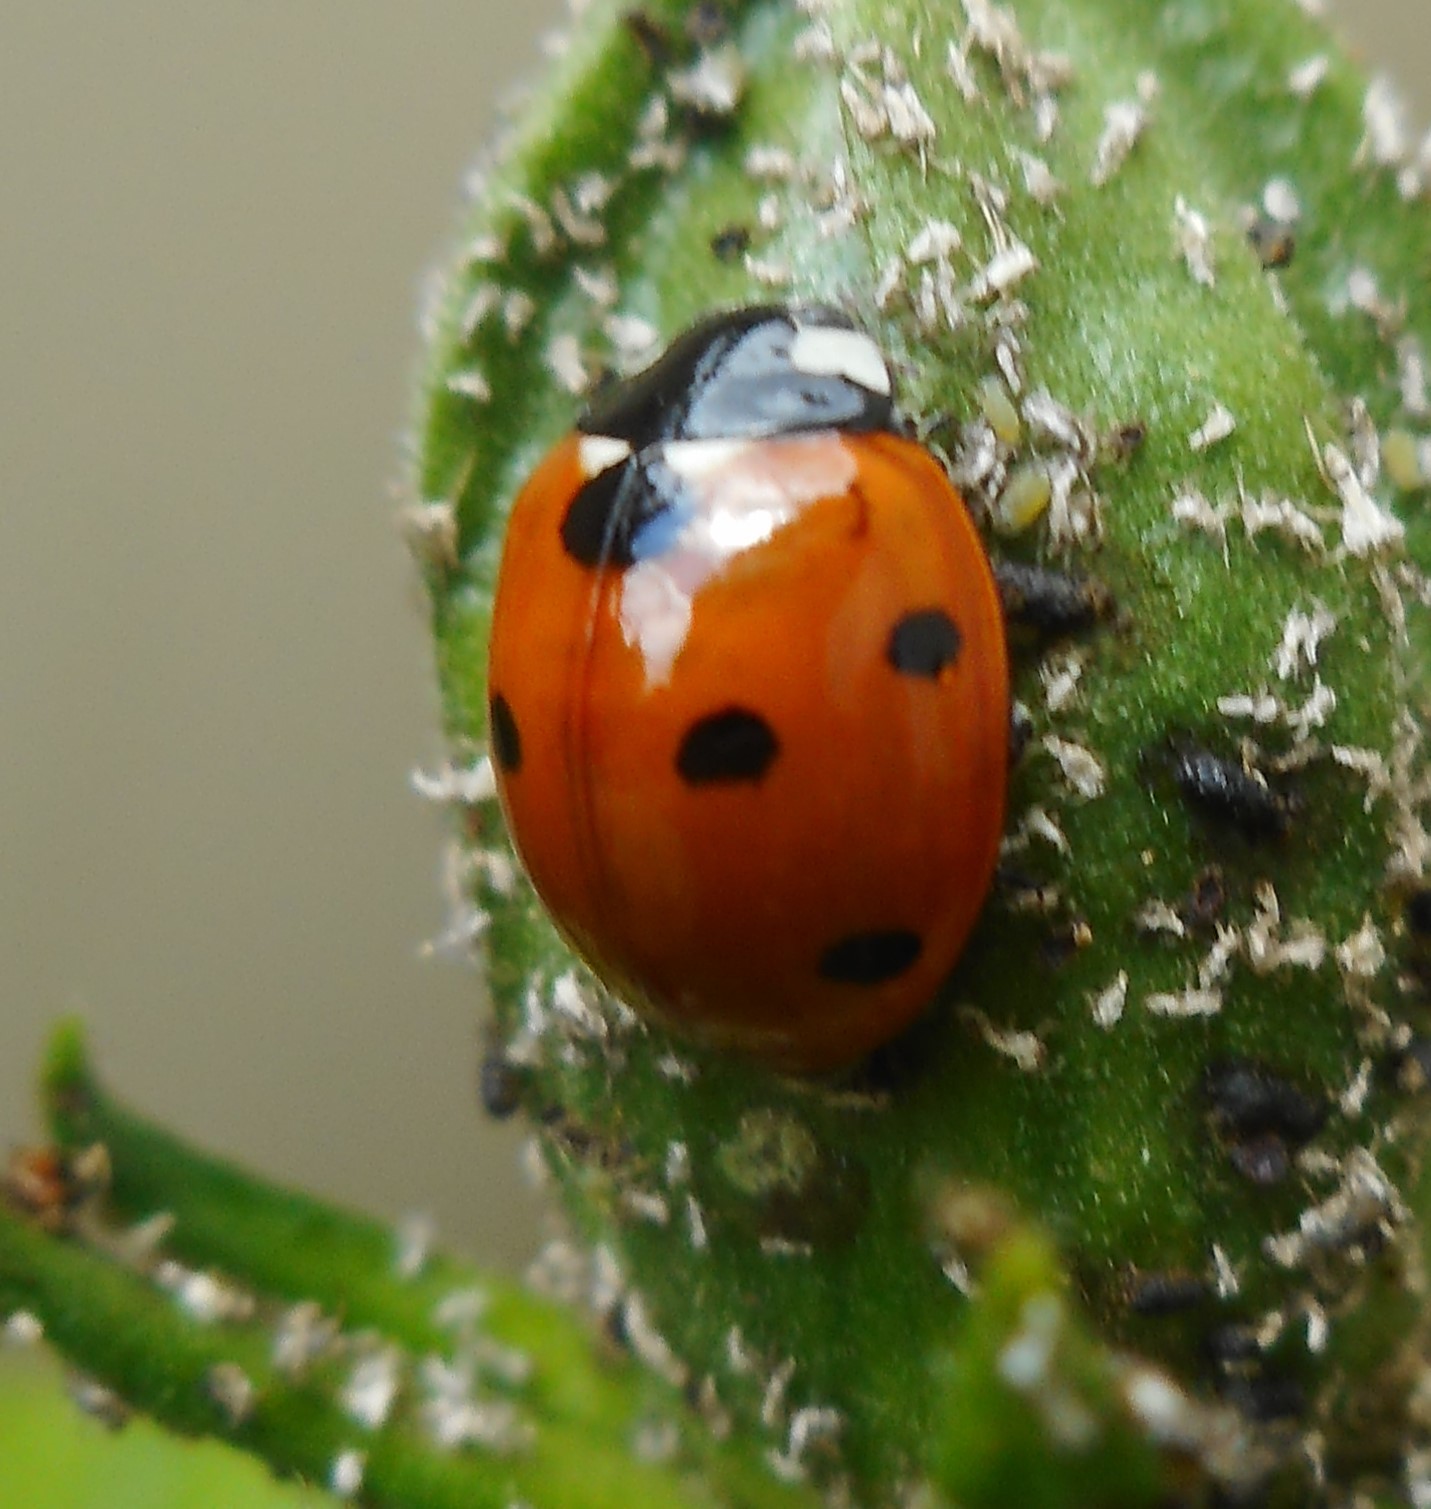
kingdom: Animalia
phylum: Arthropoda
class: Insecta
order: Coleoptera
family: Coccinellidae
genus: Coccinella
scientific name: Coccinella septempunctata
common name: Sevenspotted lady beetle
